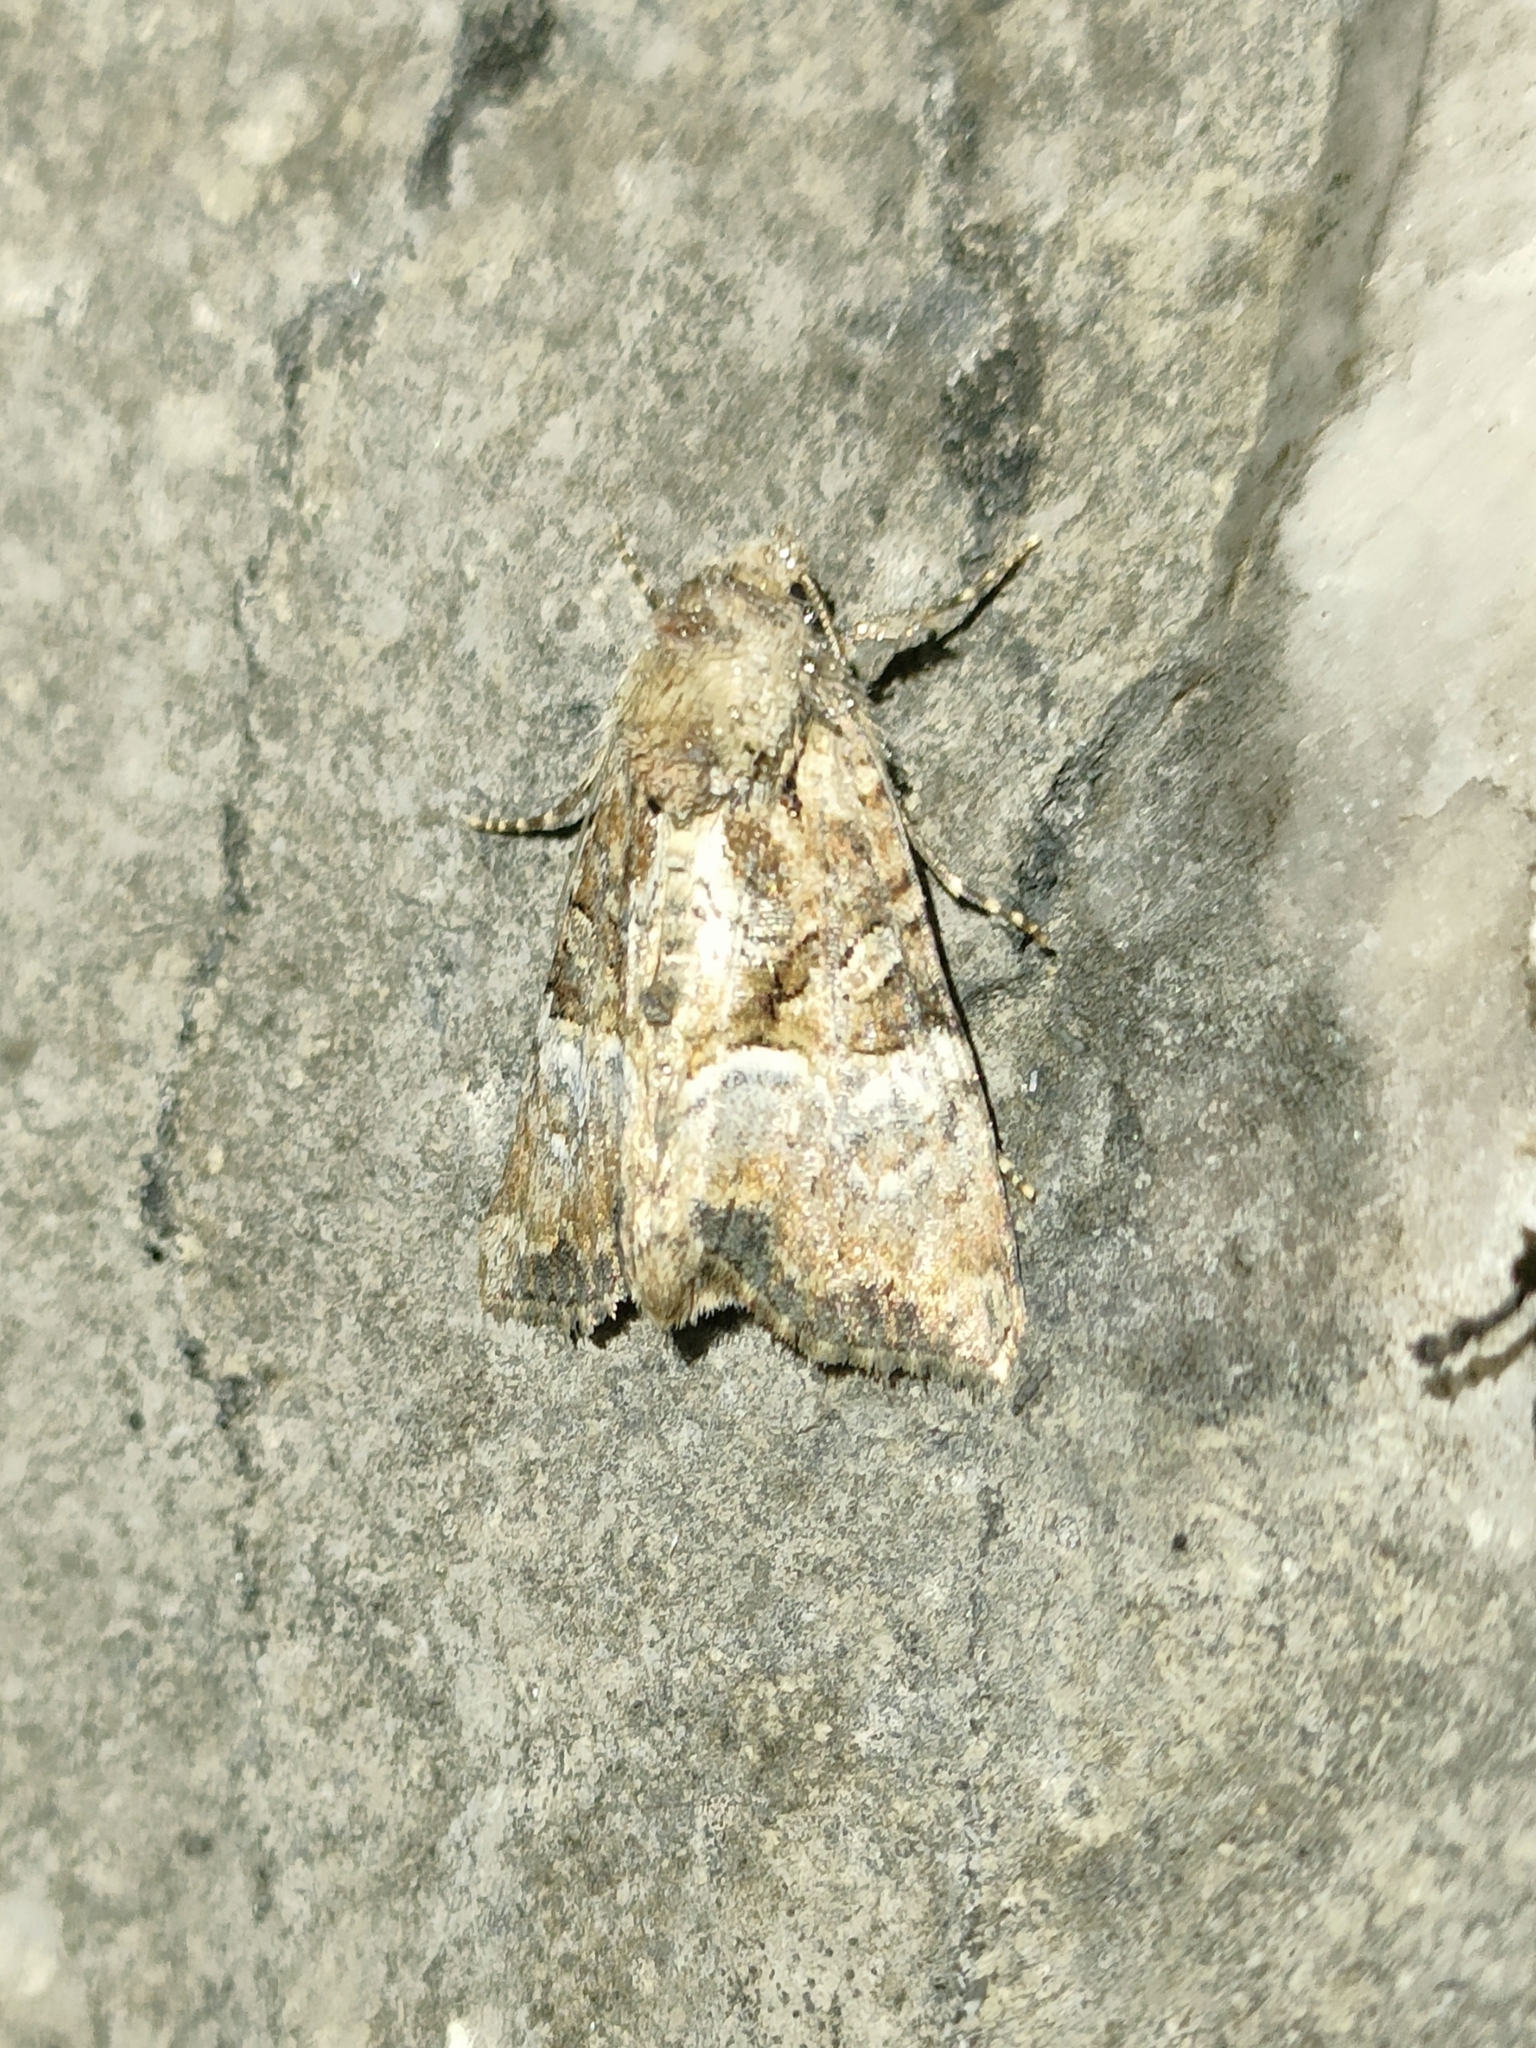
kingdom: Animalia
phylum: Arthropoda
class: Insecta
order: Lepidoptera
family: Noctuidae
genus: Mesoligia
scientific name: Mesoligia furuncula
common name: Cloaked minor
